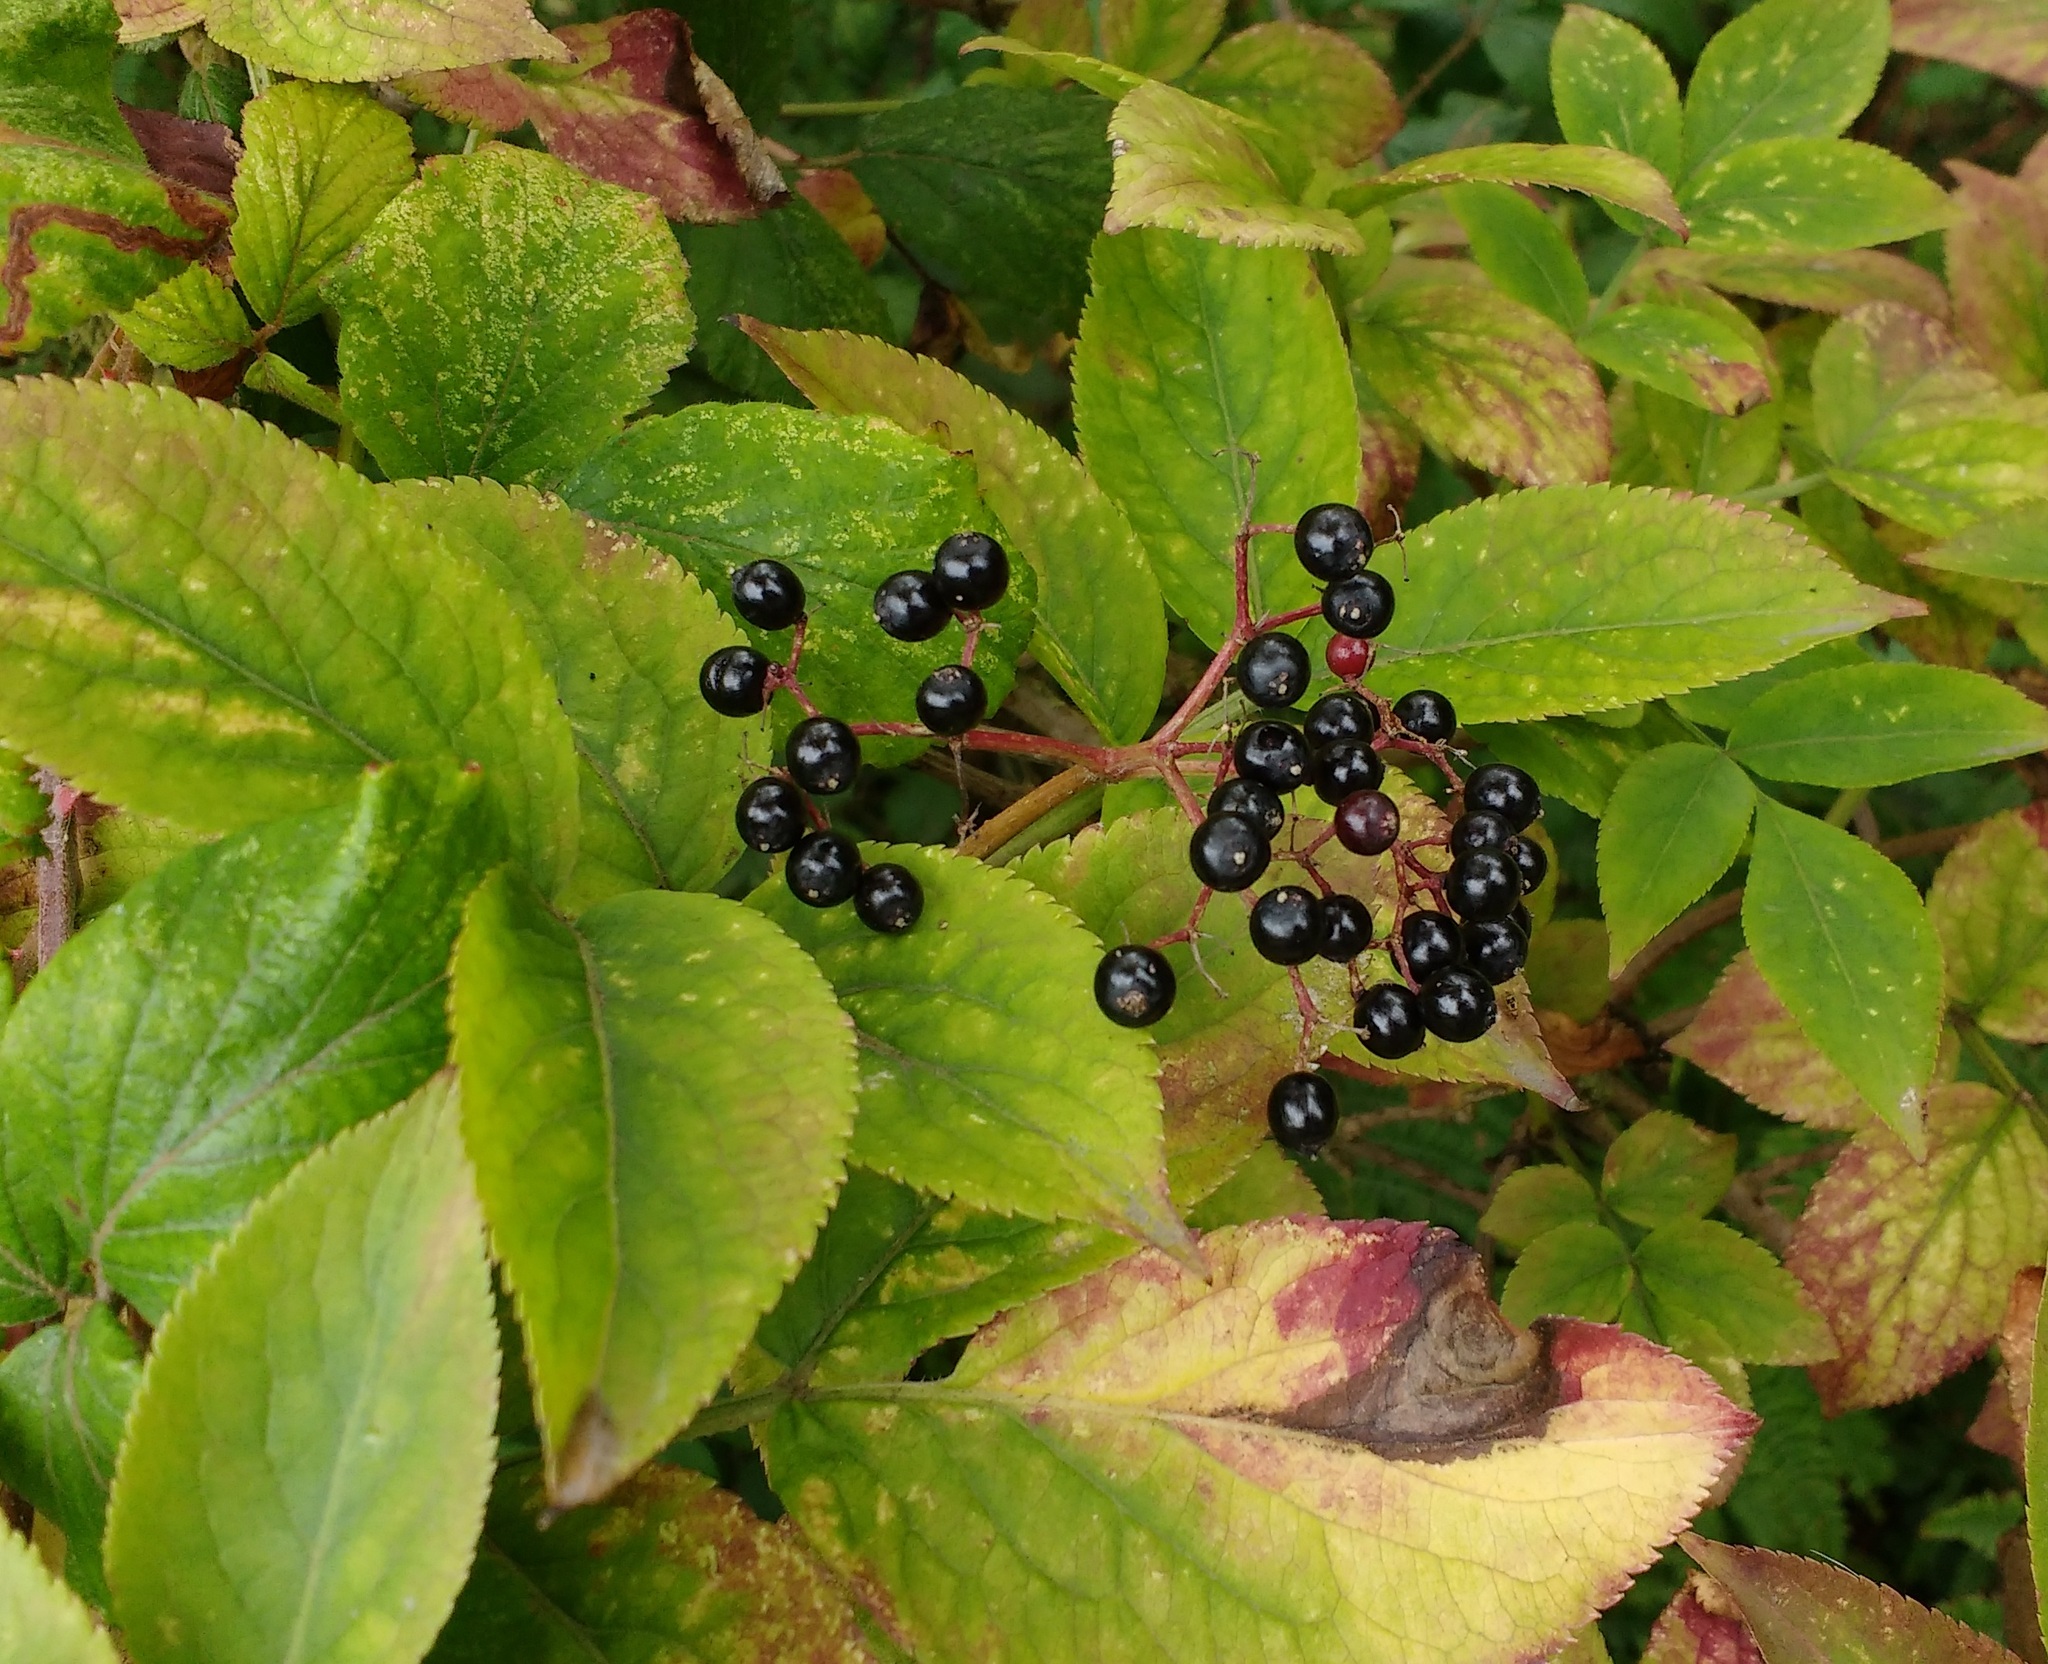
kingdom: Plantae
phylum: Tracheophyta
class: Magnoliopsida
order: Dipsacales
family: Viburnaceae
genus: Sambucus
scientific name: Sambucus nigra
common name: Elder
